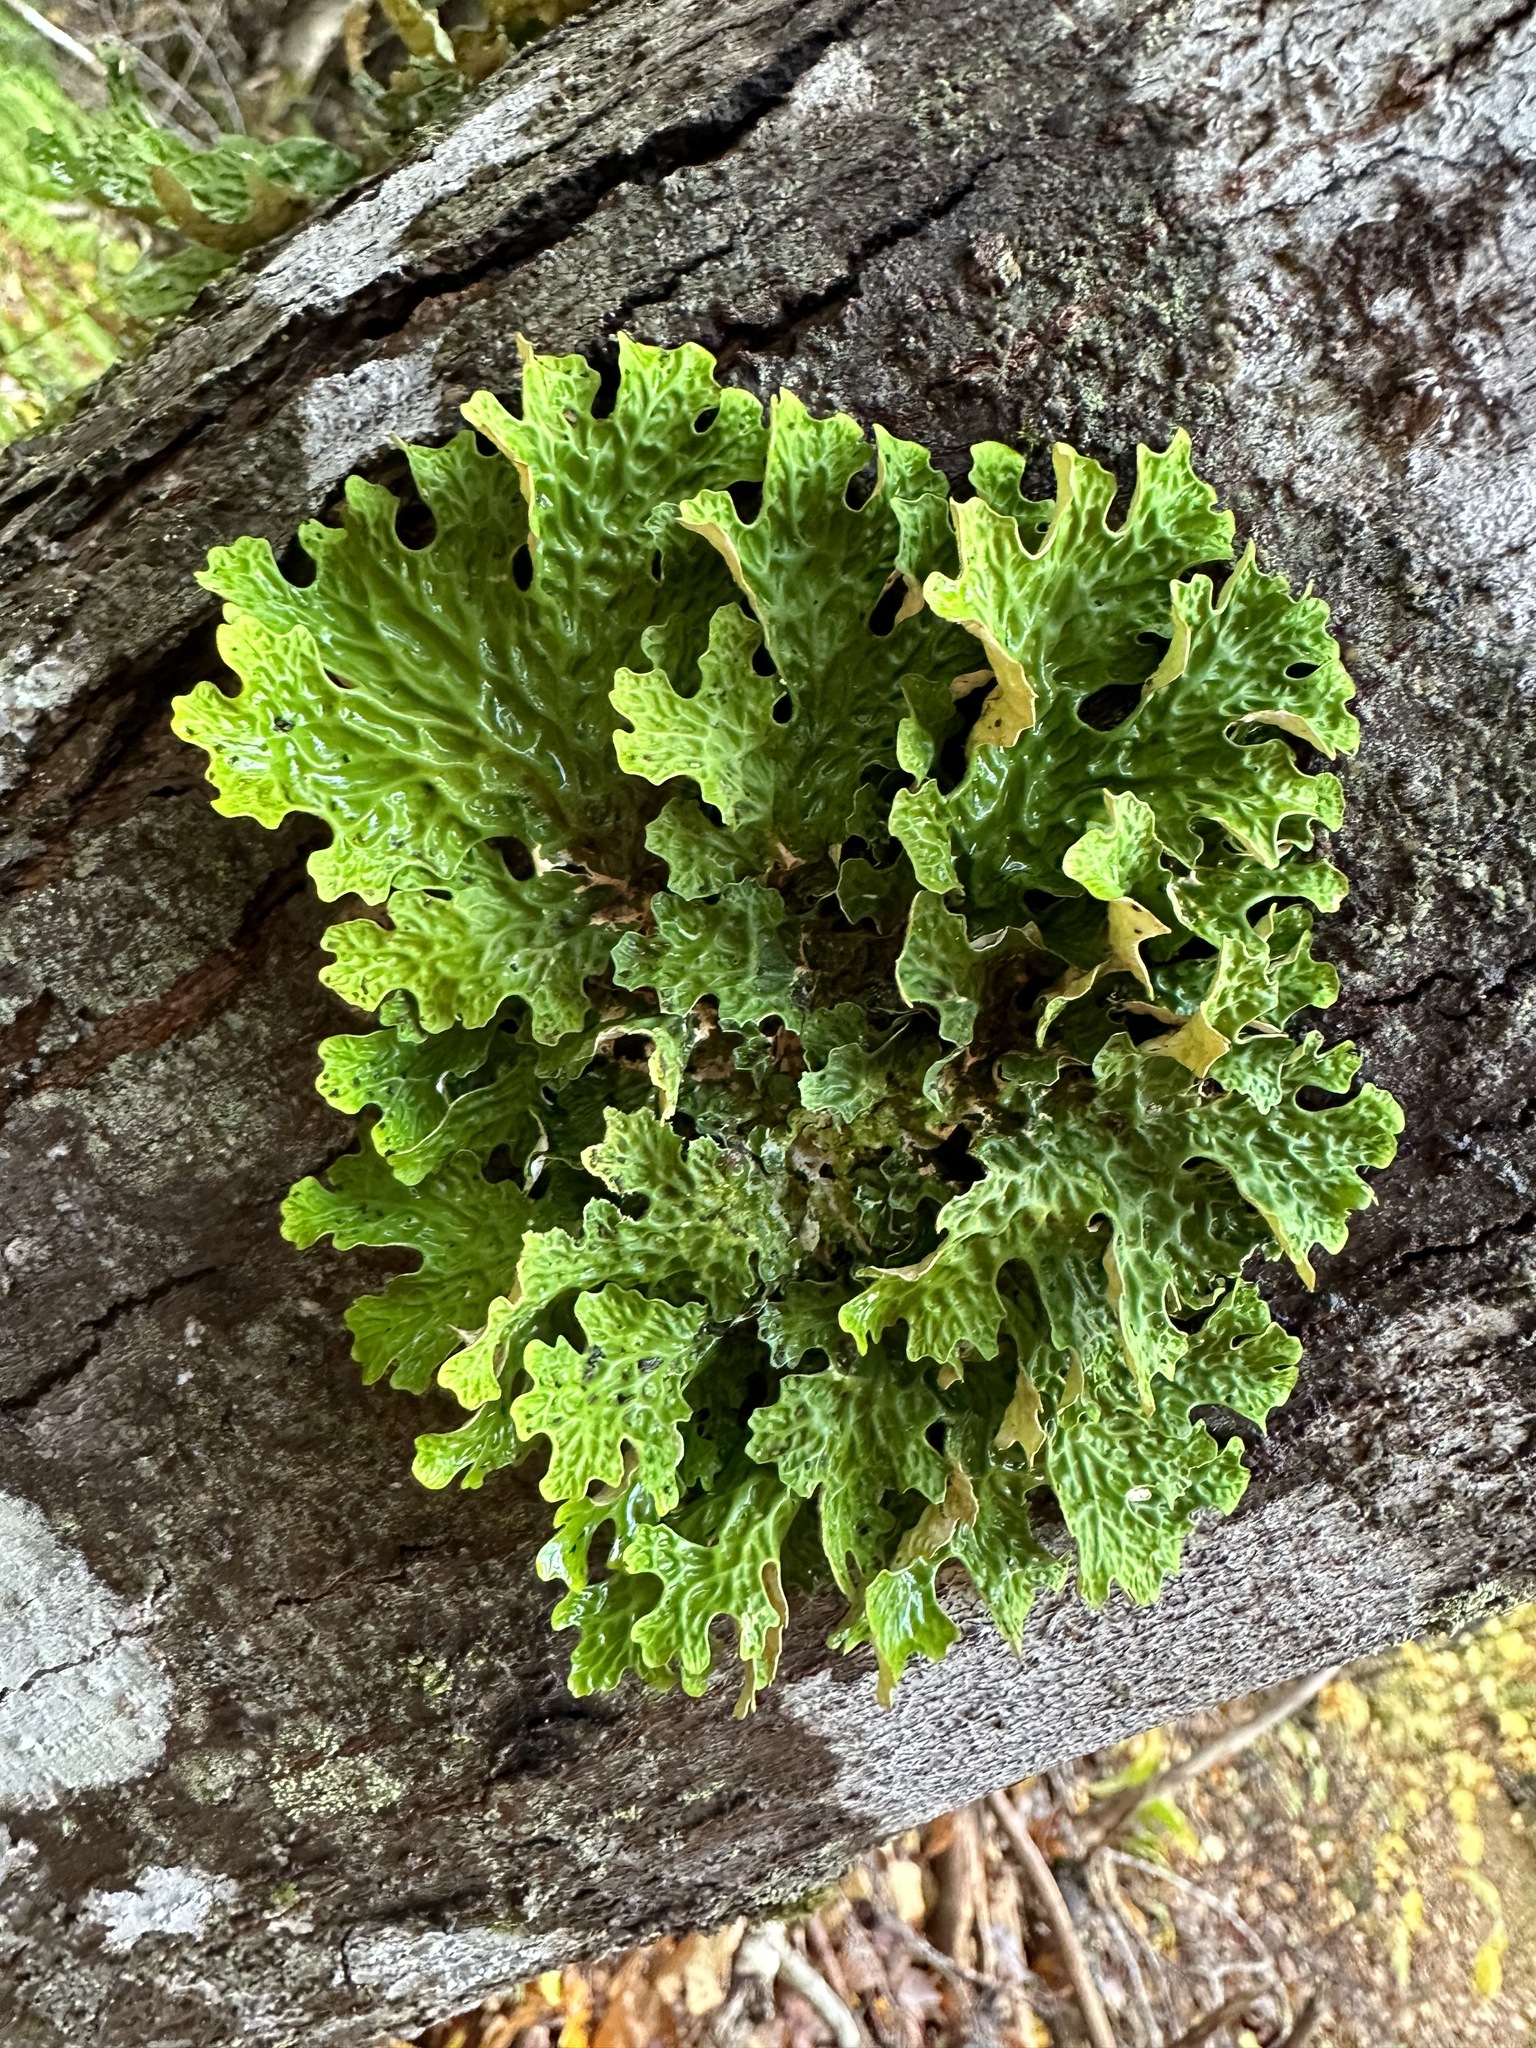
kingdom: Fungi
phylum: Ascomycota
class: Lecanoromycetes
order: Peltigerales
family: Lobariaceae
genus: Lobaria
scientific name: Lobaria pulmonaria
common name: Lungwort
